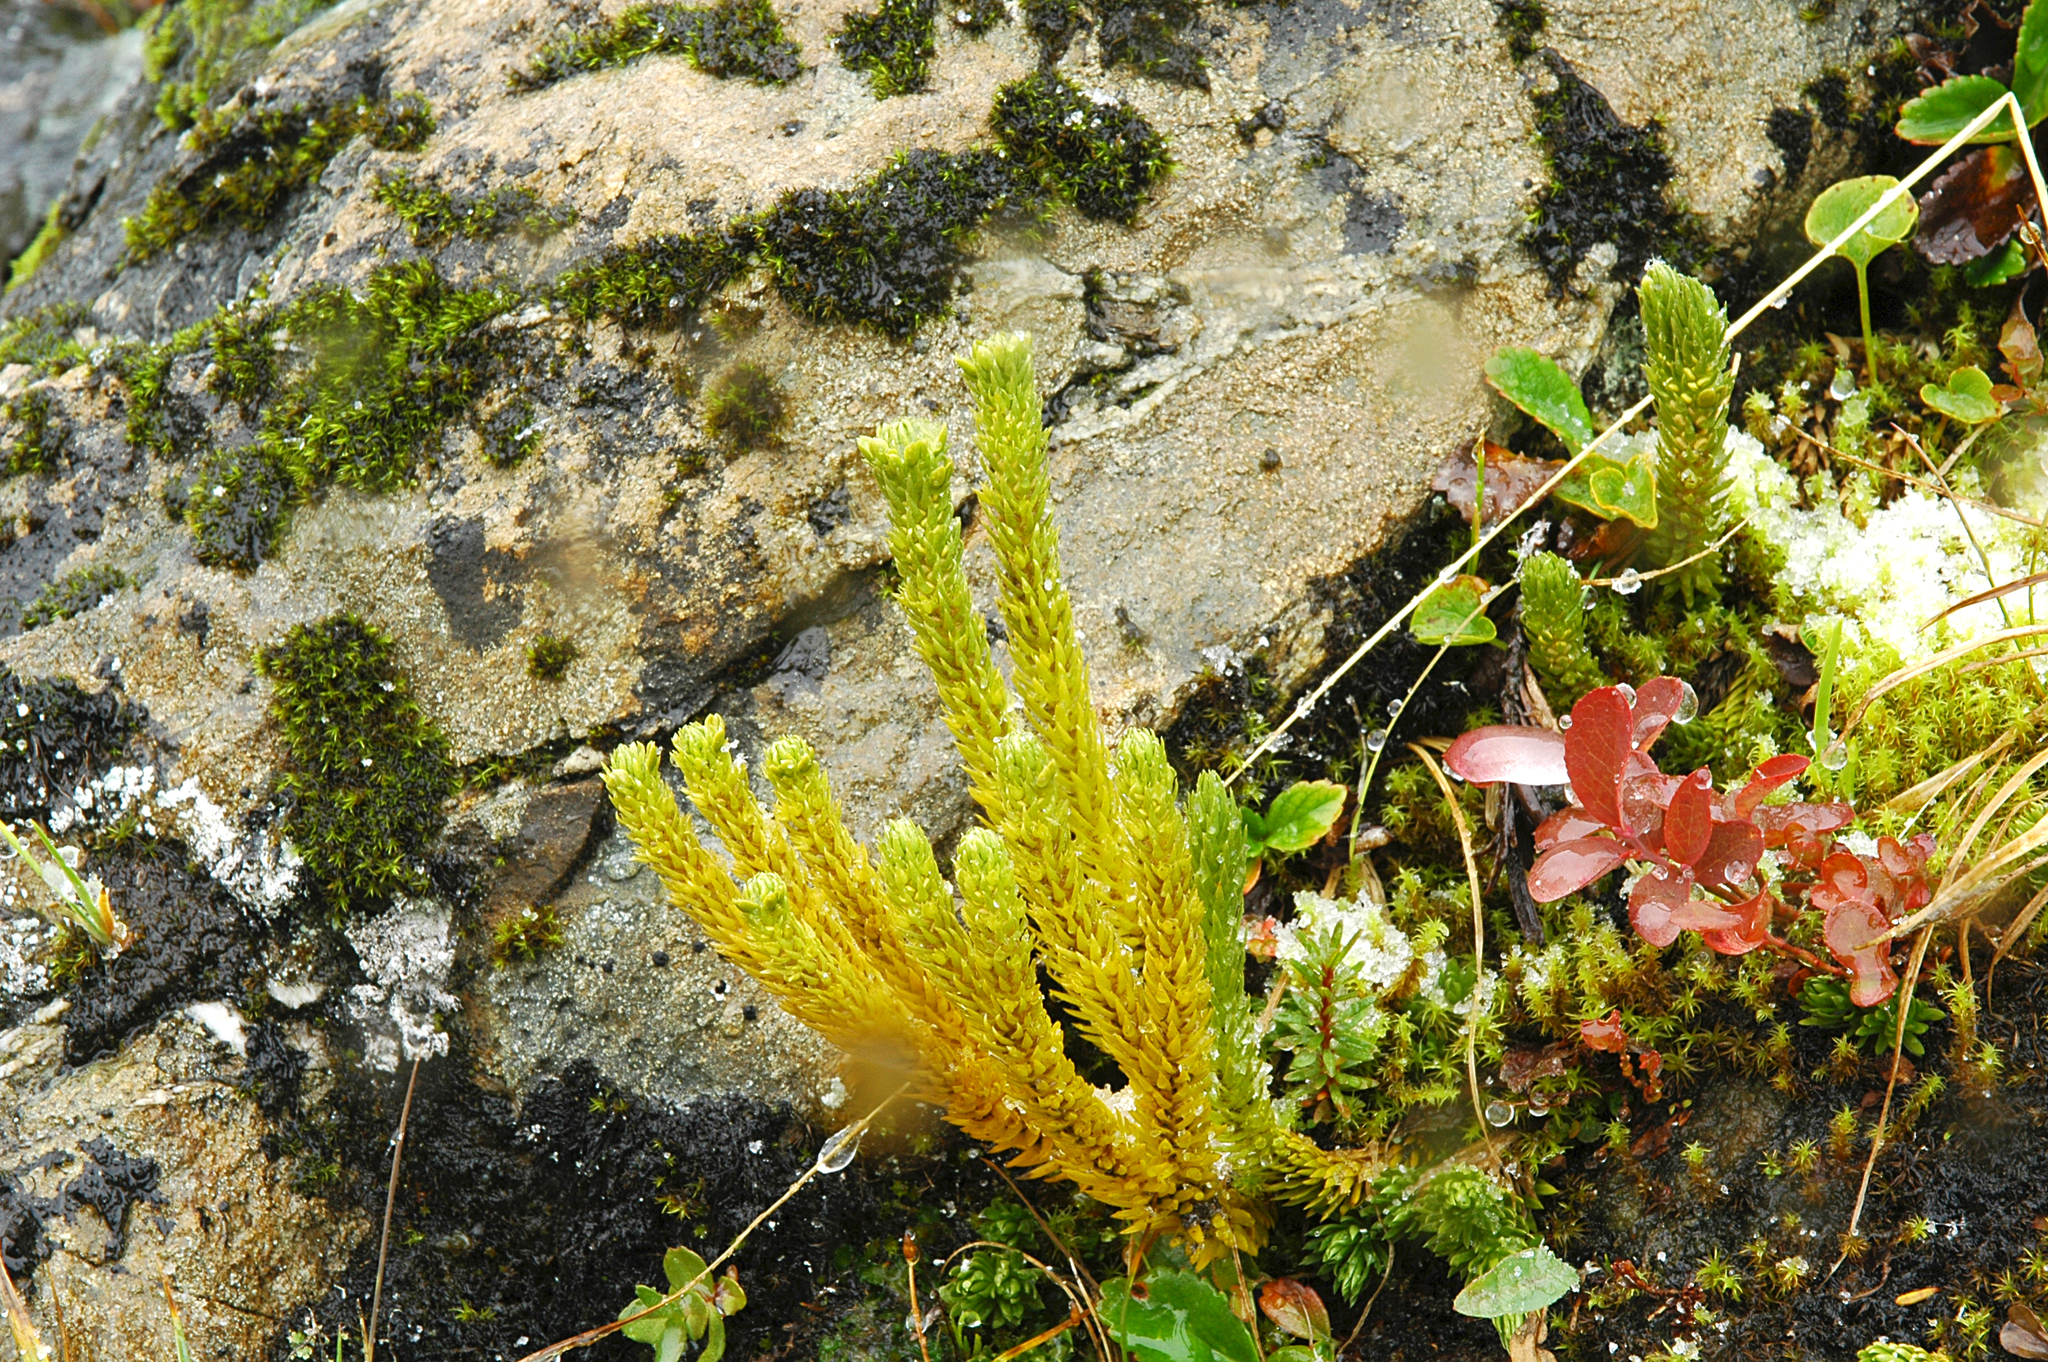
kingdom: Plantae
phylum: Tracheophyta
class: Lycopodiopsida
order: Lycopodiales
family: Lycopodiaceae
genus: Huperzia
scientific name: Huperzia continentalis
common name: Continental firmoss
